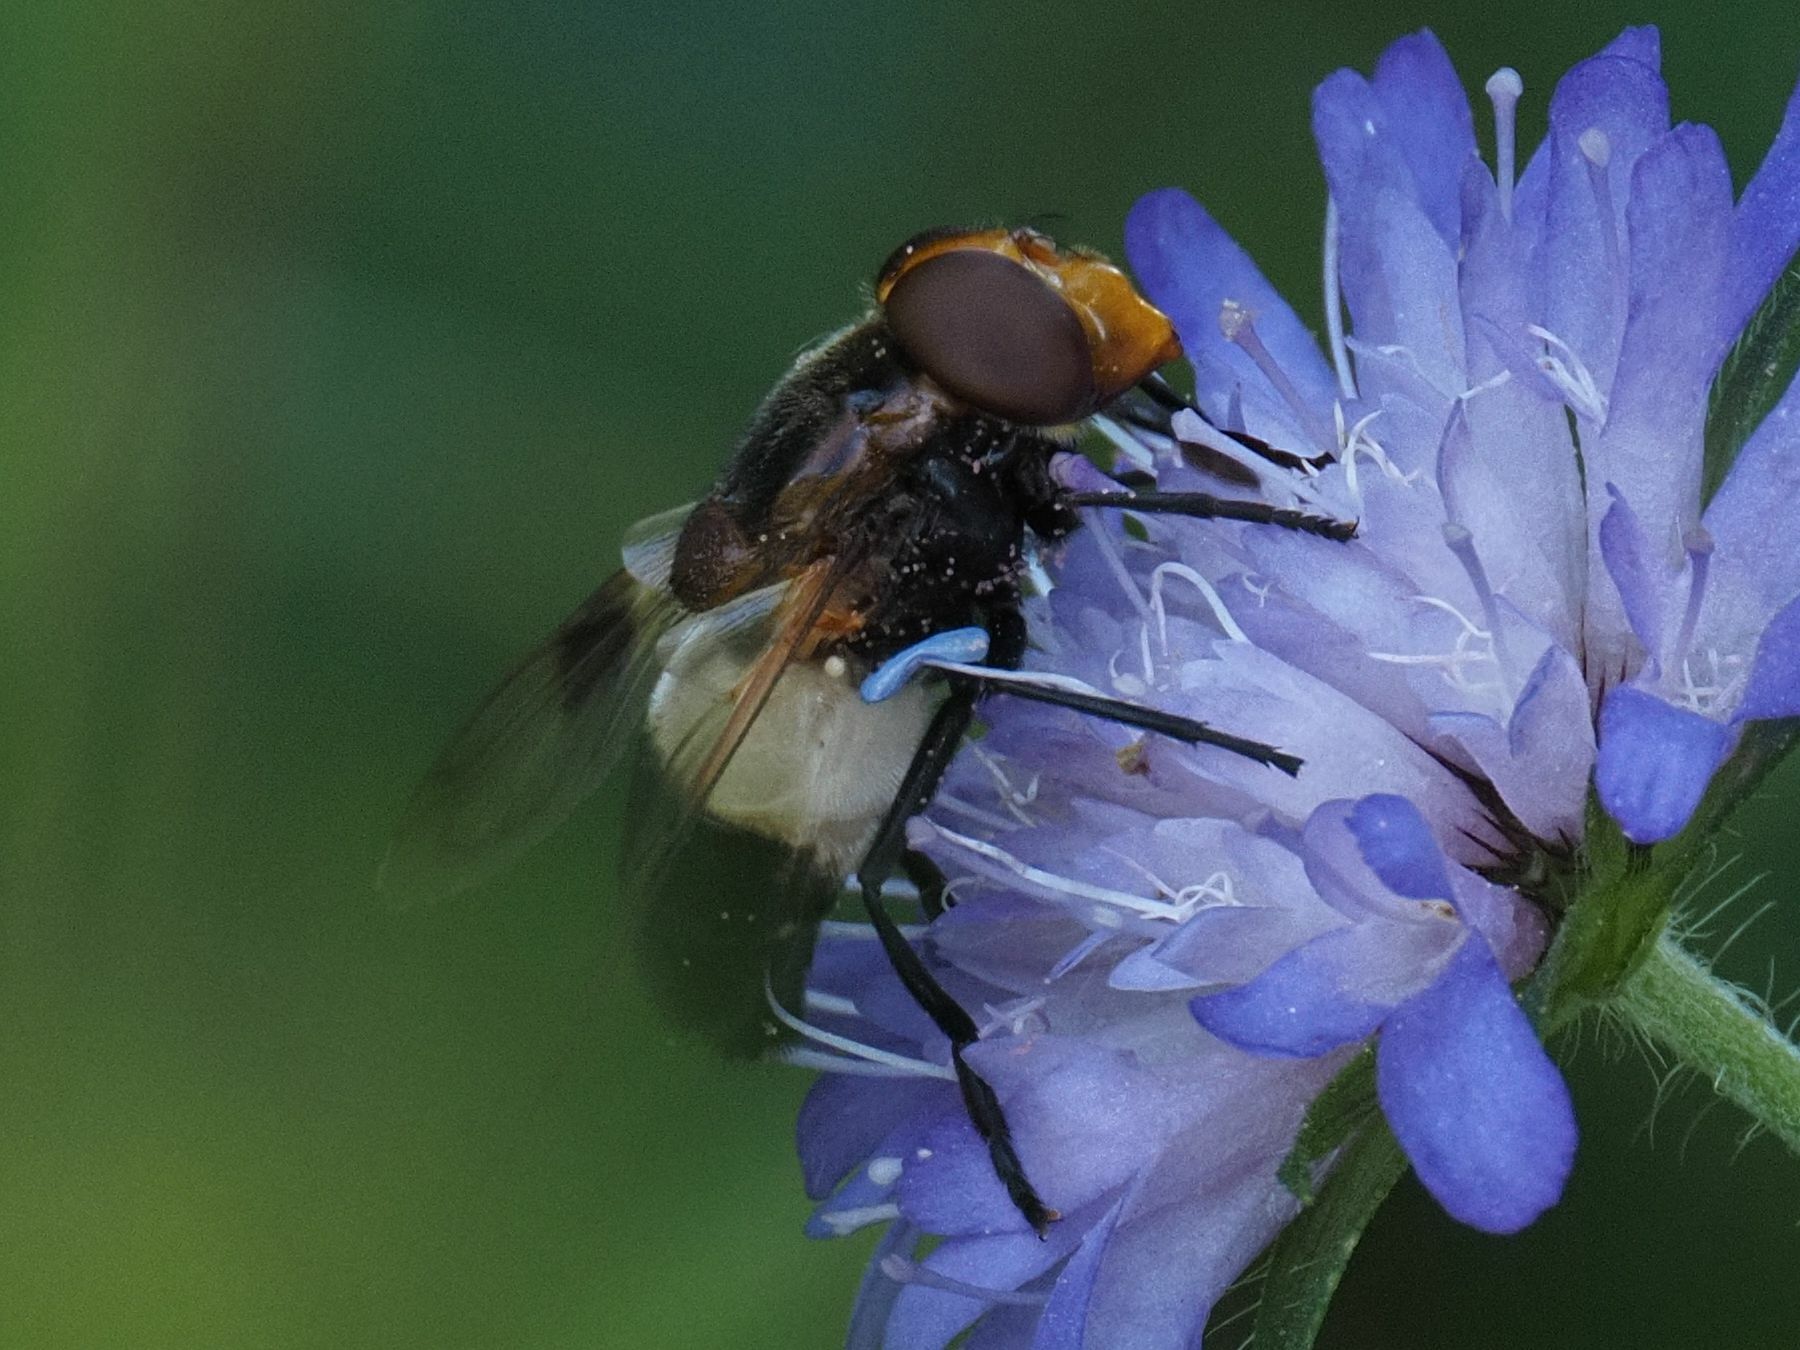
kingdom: Animalia
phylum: Arthropoda
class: Insecta
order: Diptera
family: Syrphidae
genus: Volucella
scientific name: Volucella pellucens
